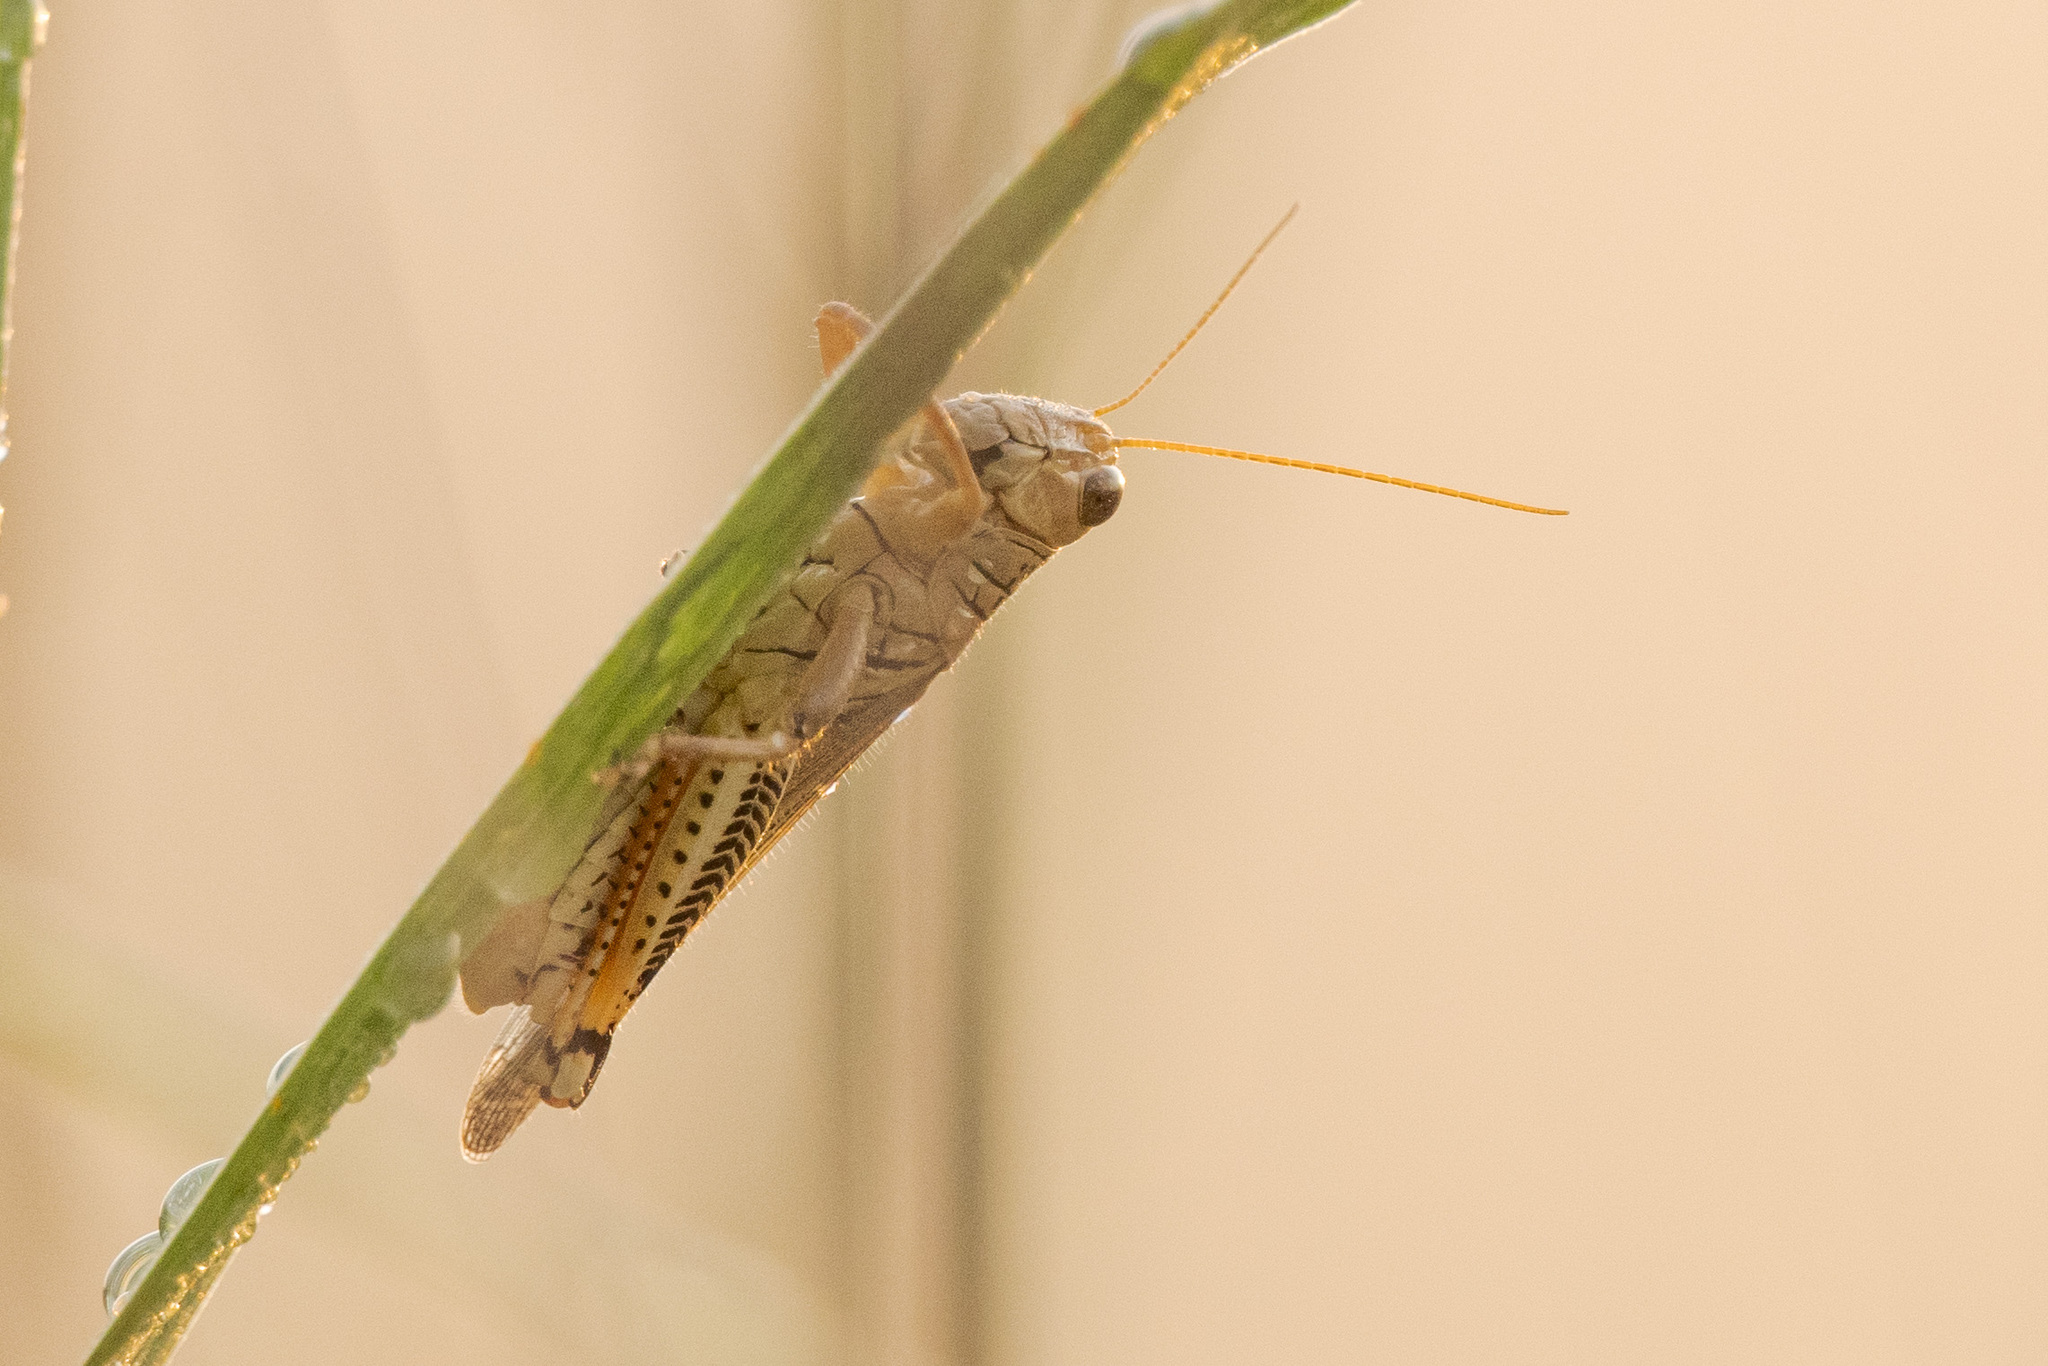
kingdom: Animalia
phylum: Arthropoda
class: Insecta
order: Orthoptera
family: Acrididae
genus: Melanoplus
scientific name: Melanoplus differentialis
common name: Differential grasshopper
